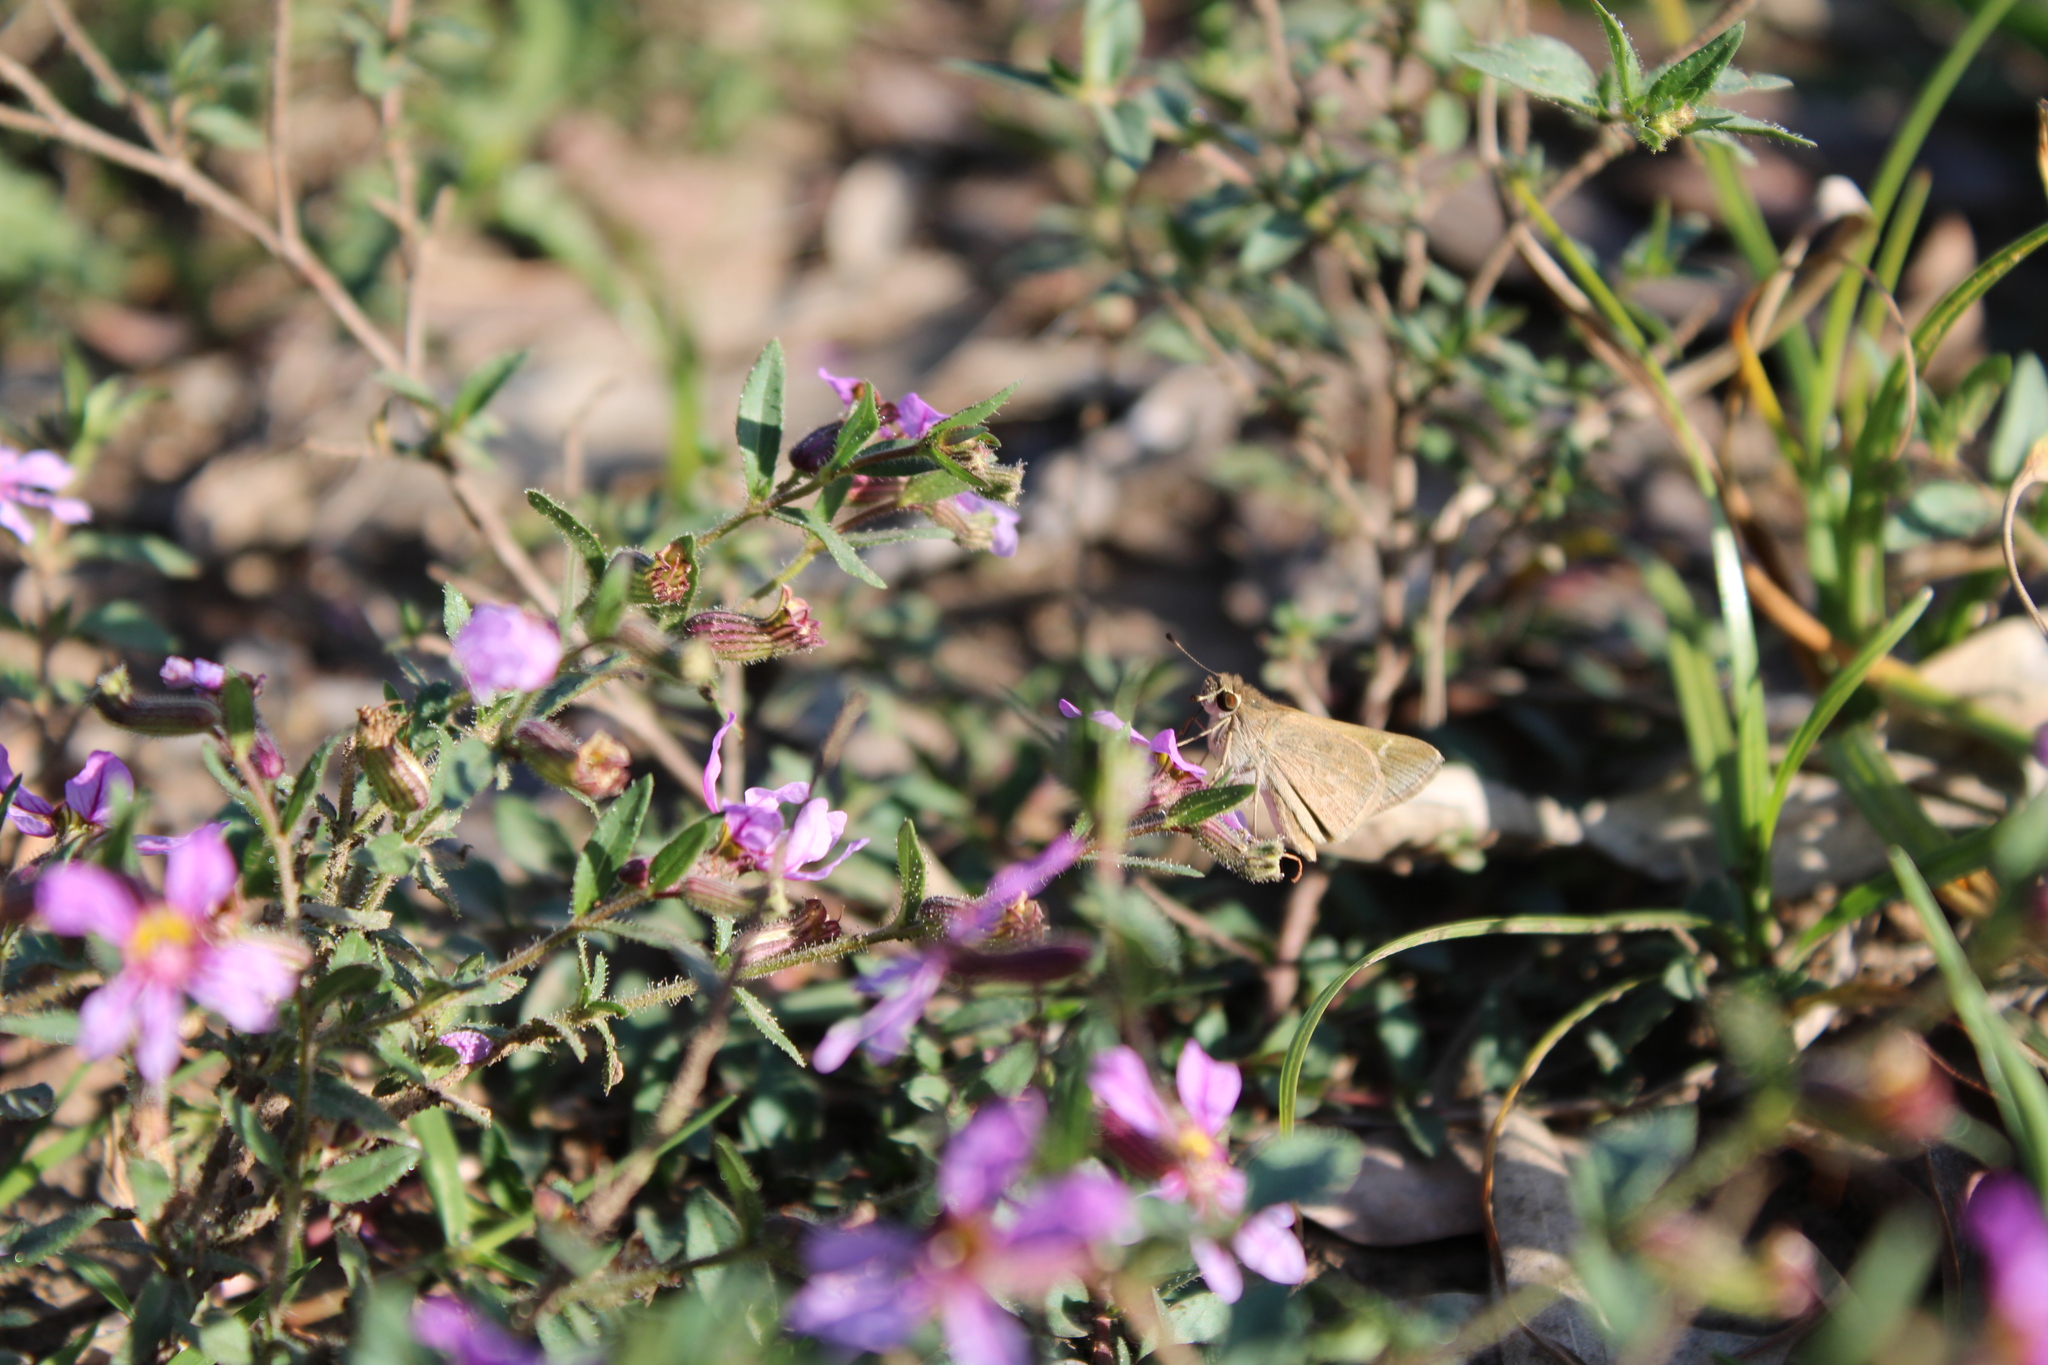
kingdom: Animalia
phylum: Arthropoda
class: Insecta
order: Lepidoptera
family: Hesperiidae
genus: Lerodea
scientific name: Lerodea eufala
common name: Eufala skipper
